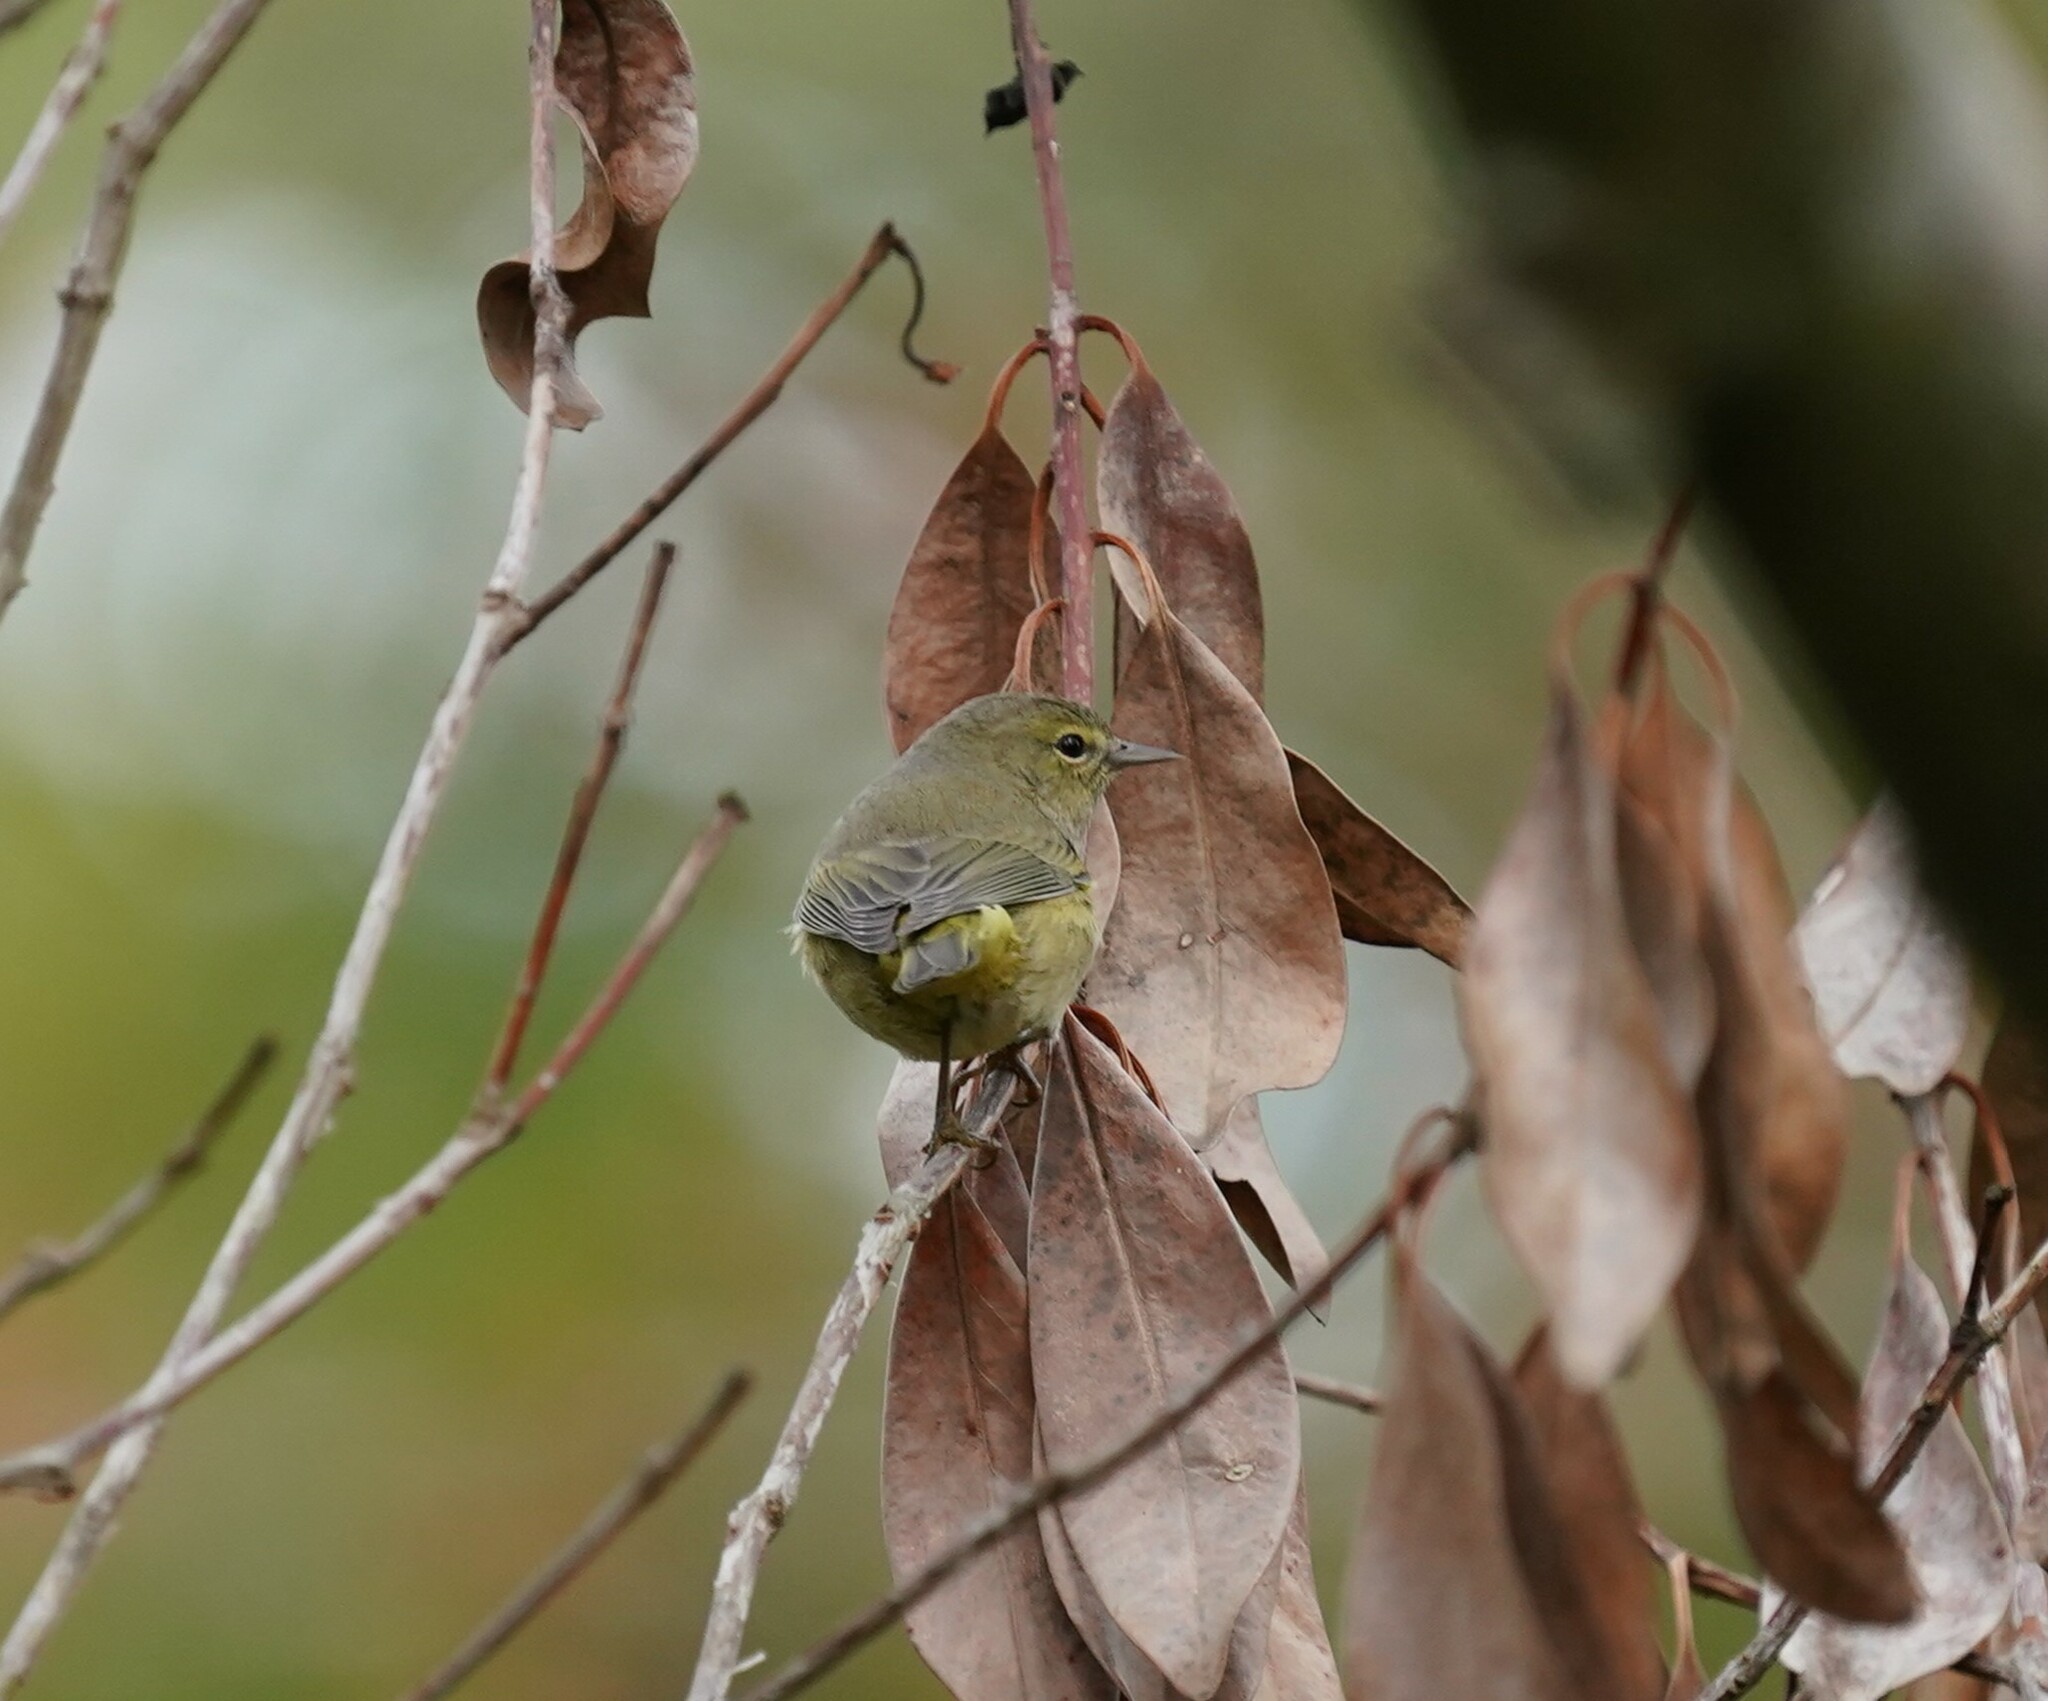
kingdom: Animalia
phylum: Chordata
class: Aves
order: Passeriformes
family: Parulidae
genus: Leiothlypis
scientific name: Leiothlypis celata
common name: Orange-crowned warbler
